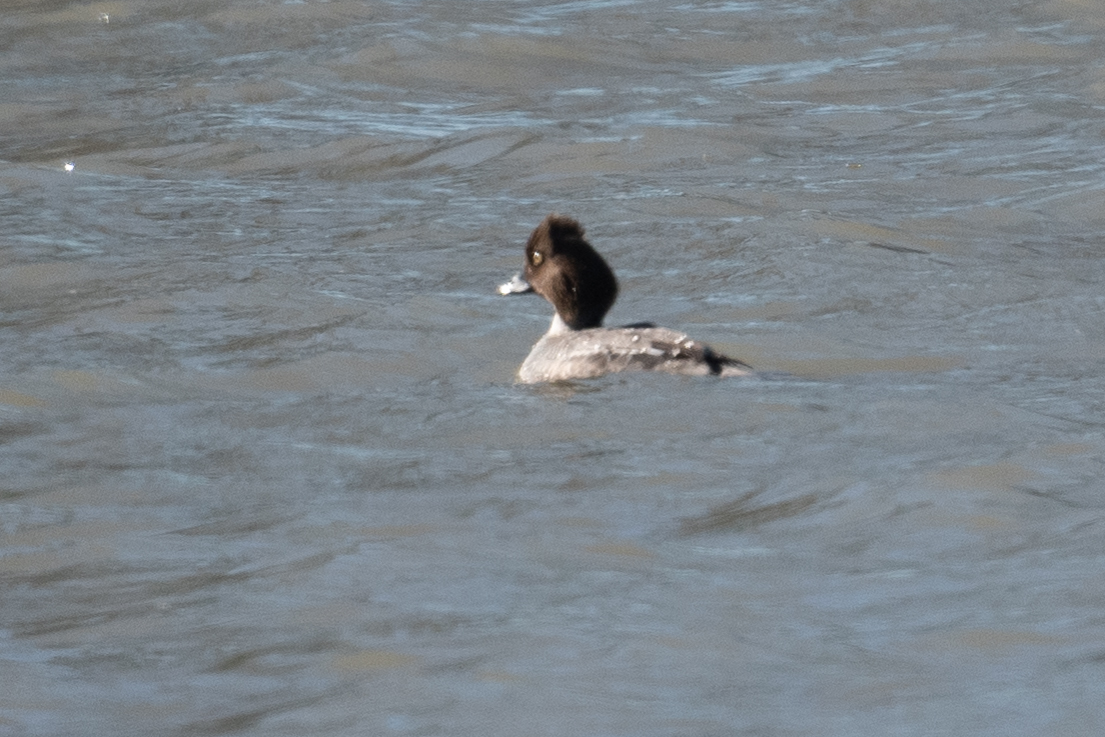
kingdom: Animalia
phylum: Chordata
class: Aves
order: Anseriformes
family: Anatidae
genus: Bucephala
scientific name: Bucephala clangula
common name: Common goldeneye
